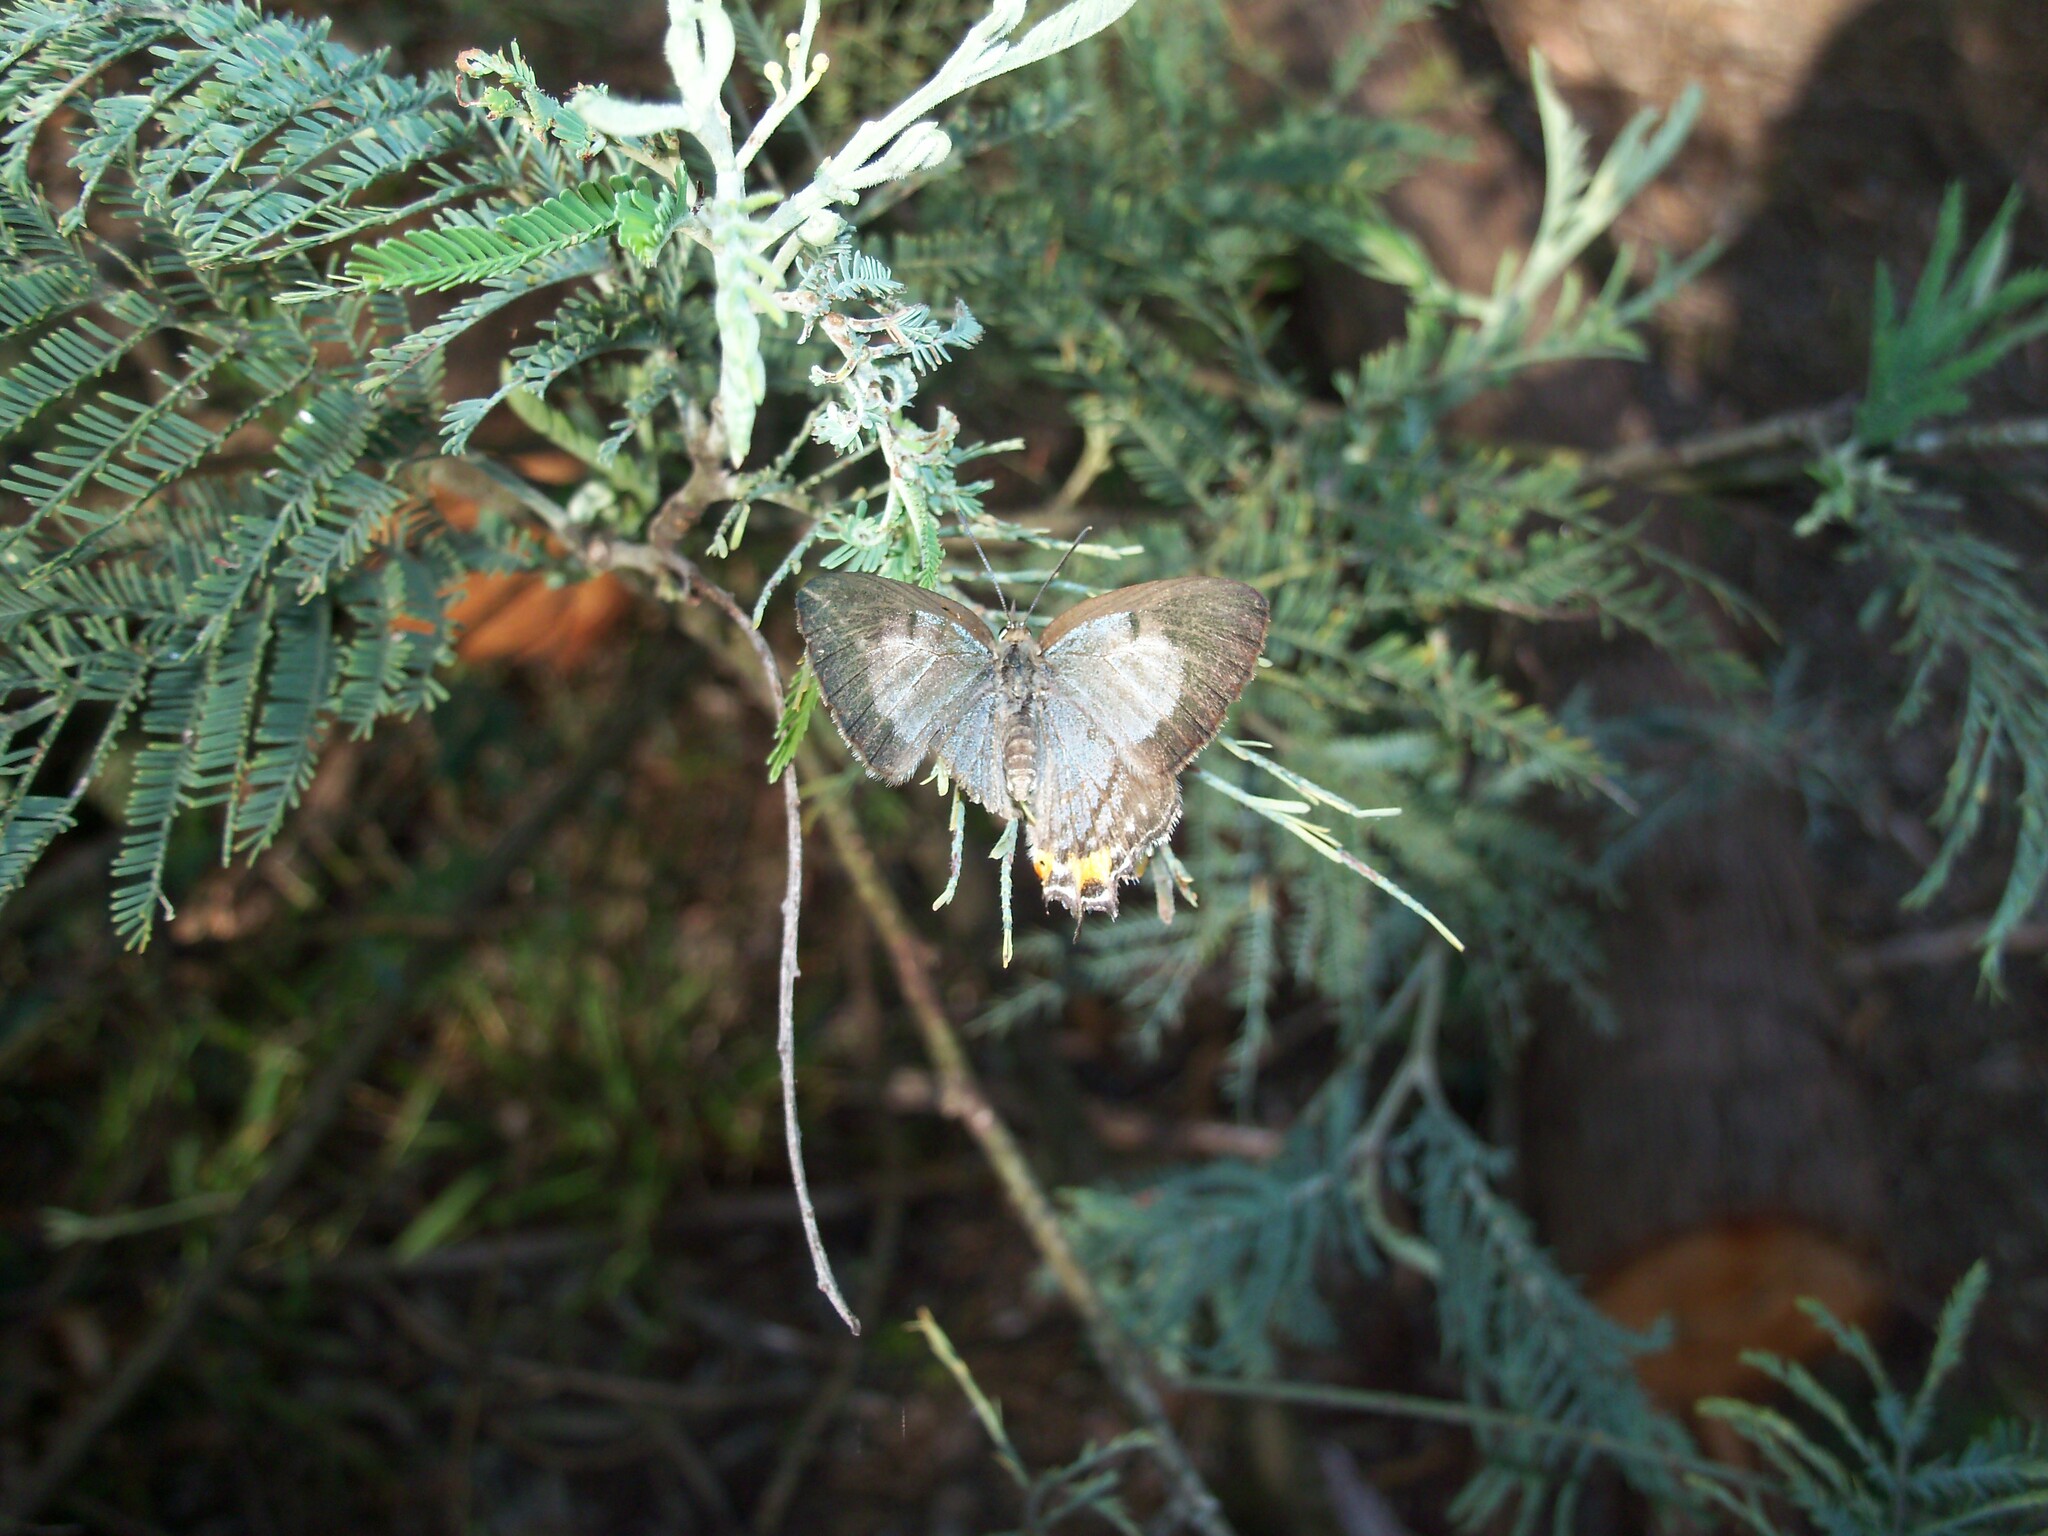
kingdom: Animalia
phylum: Arthropoda
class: Insecta
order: Lepidoptera
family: Lycaenidae
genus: Jalmenus
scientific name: Jalmenus evagoras
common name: Common imperial blue
